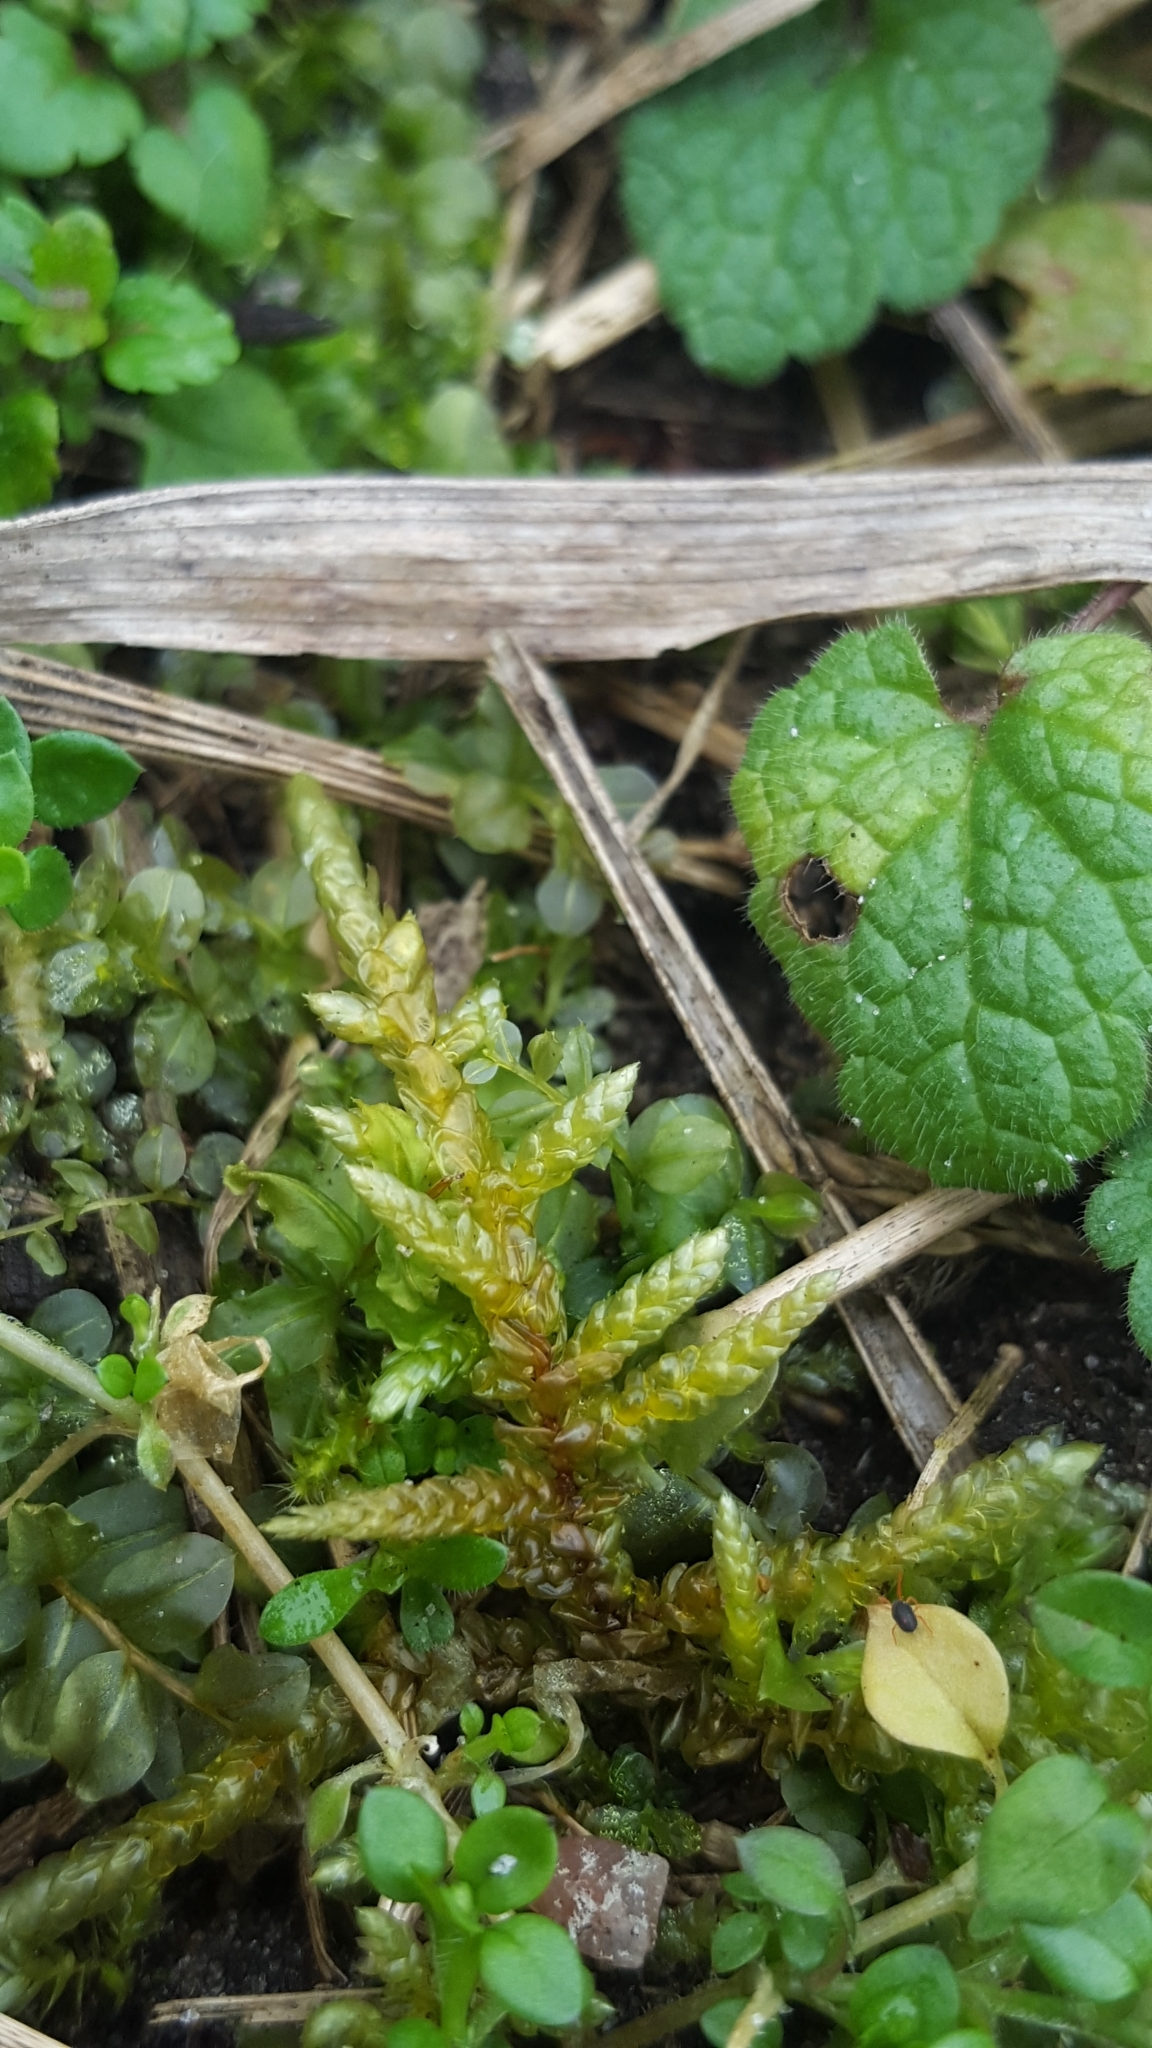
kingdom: Plantae
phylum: Bryophyta
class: Bryopsida
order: Hypnales
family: Hylocomiaceae
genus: Pleurozium
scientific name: Pleurozium schreberi
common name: Red-stemmed feather moss
